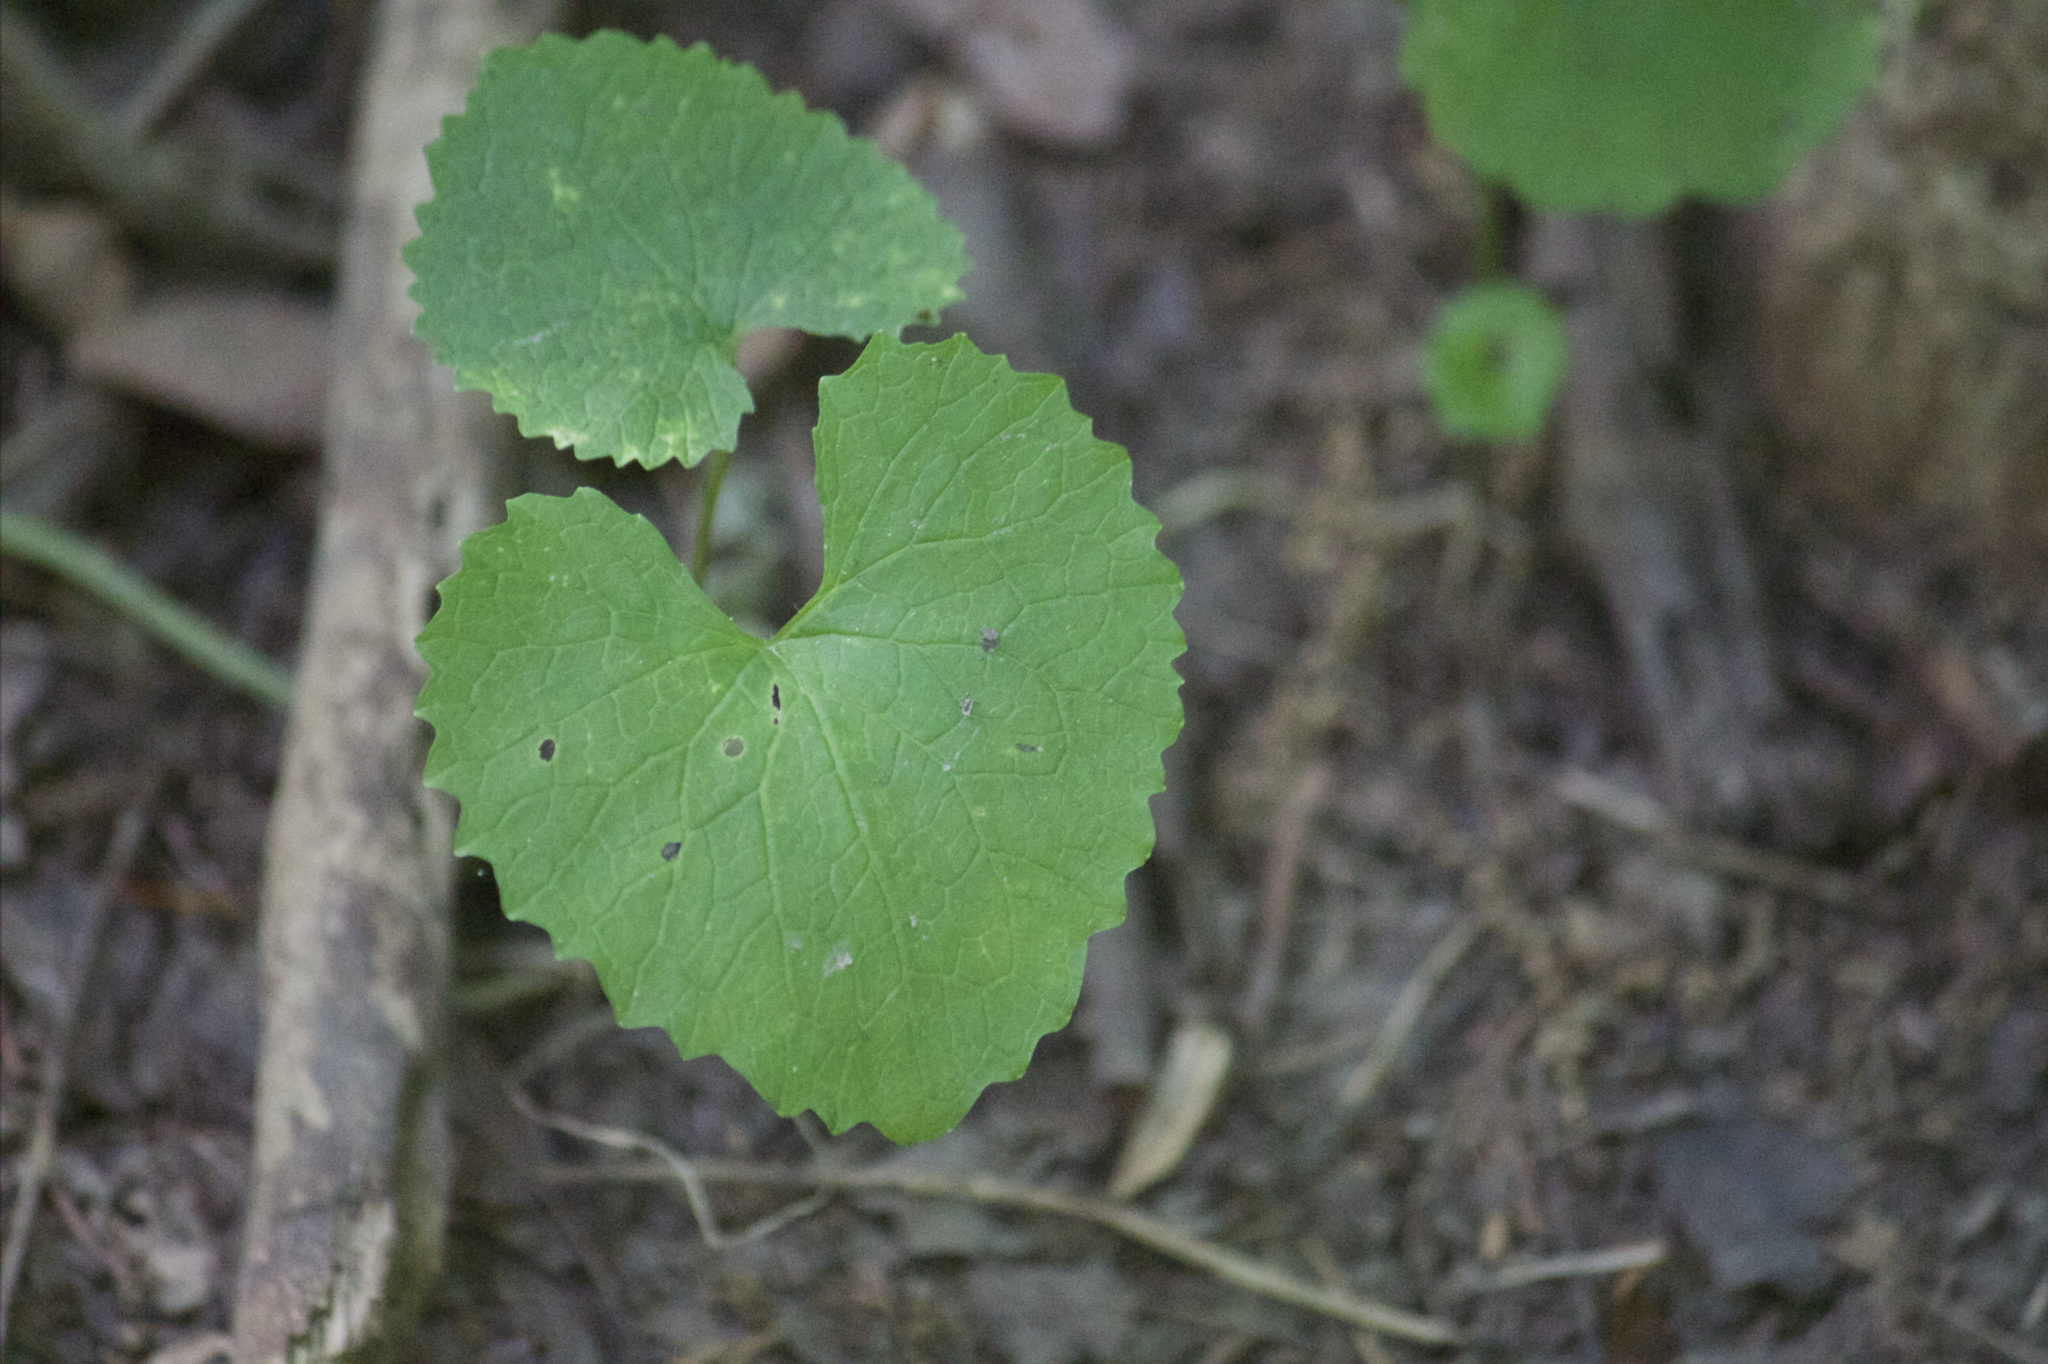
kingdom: Plantae
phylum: Tracheophyta
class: Magnoliopsida
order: Brassicales
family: Brassicaceae
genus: Alliaria
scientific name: Alliaria petiolata
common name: Garlic mustard
